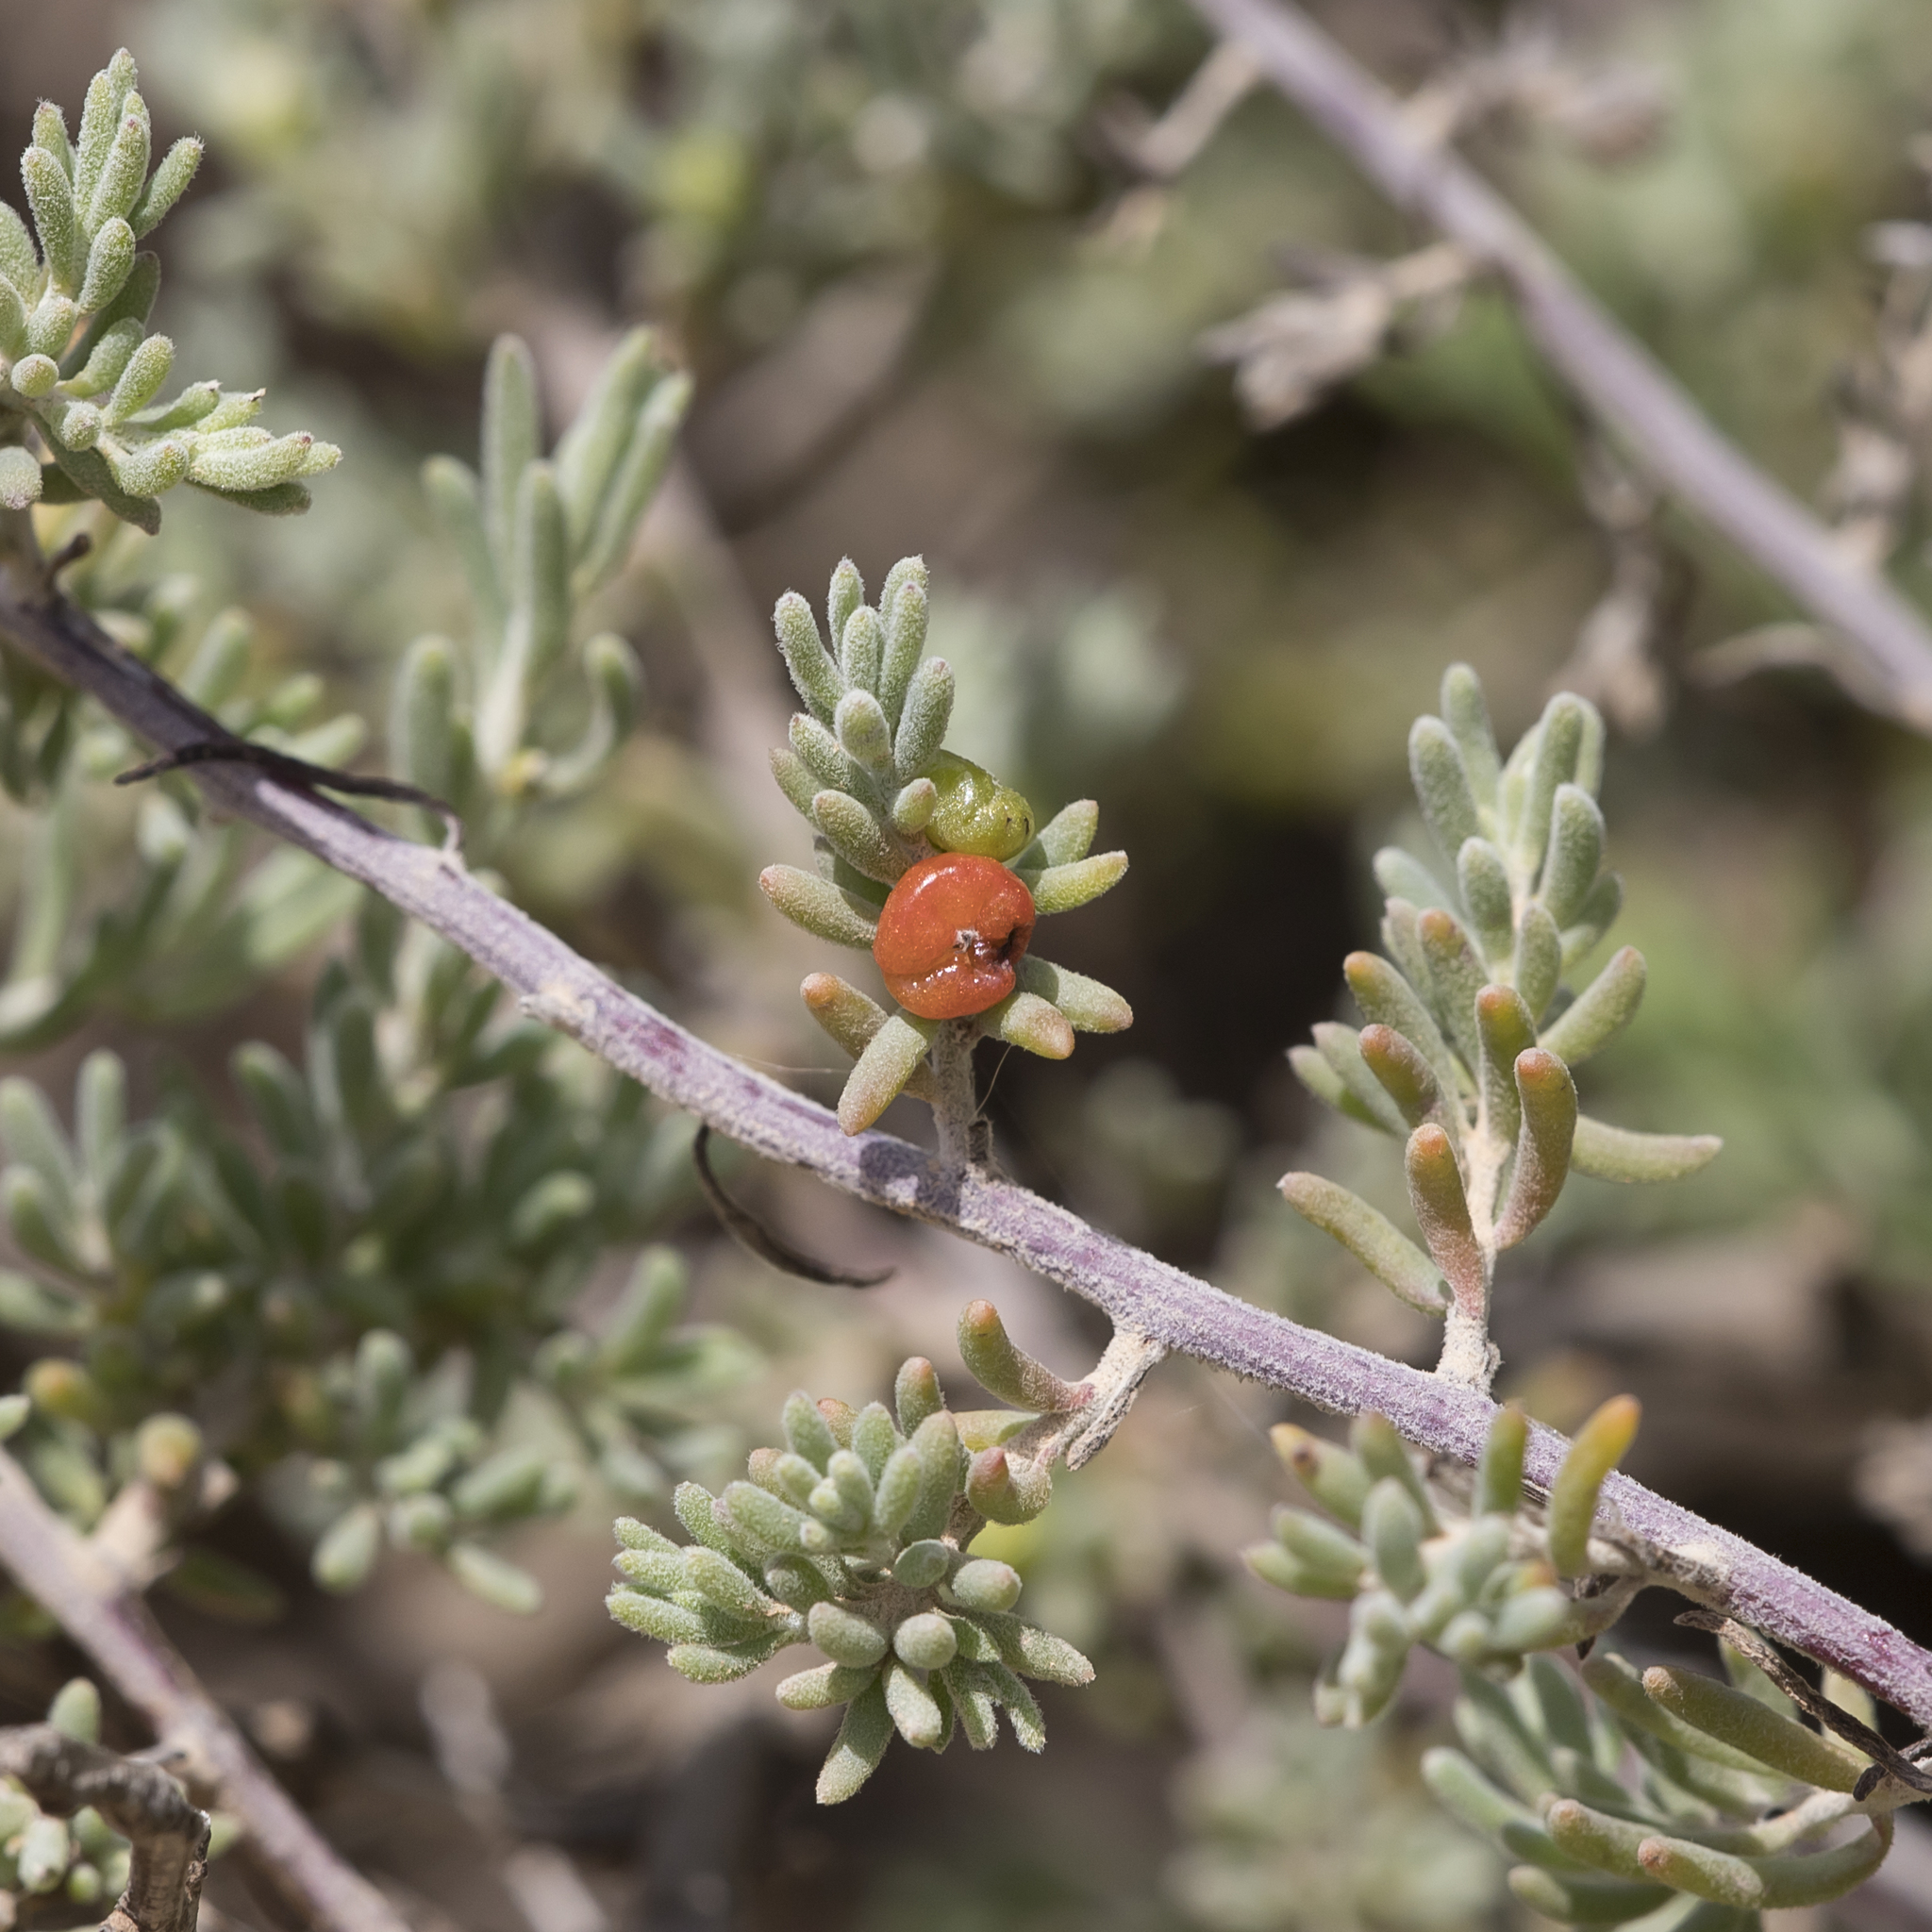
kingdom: Plantae
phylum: Tracheophyta
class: Magnoliopsida
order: Caryophyllales
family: Amaranthaceae
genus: Enchylaena
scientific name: Enchylaena tomentosa
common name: Ruby saltbush
